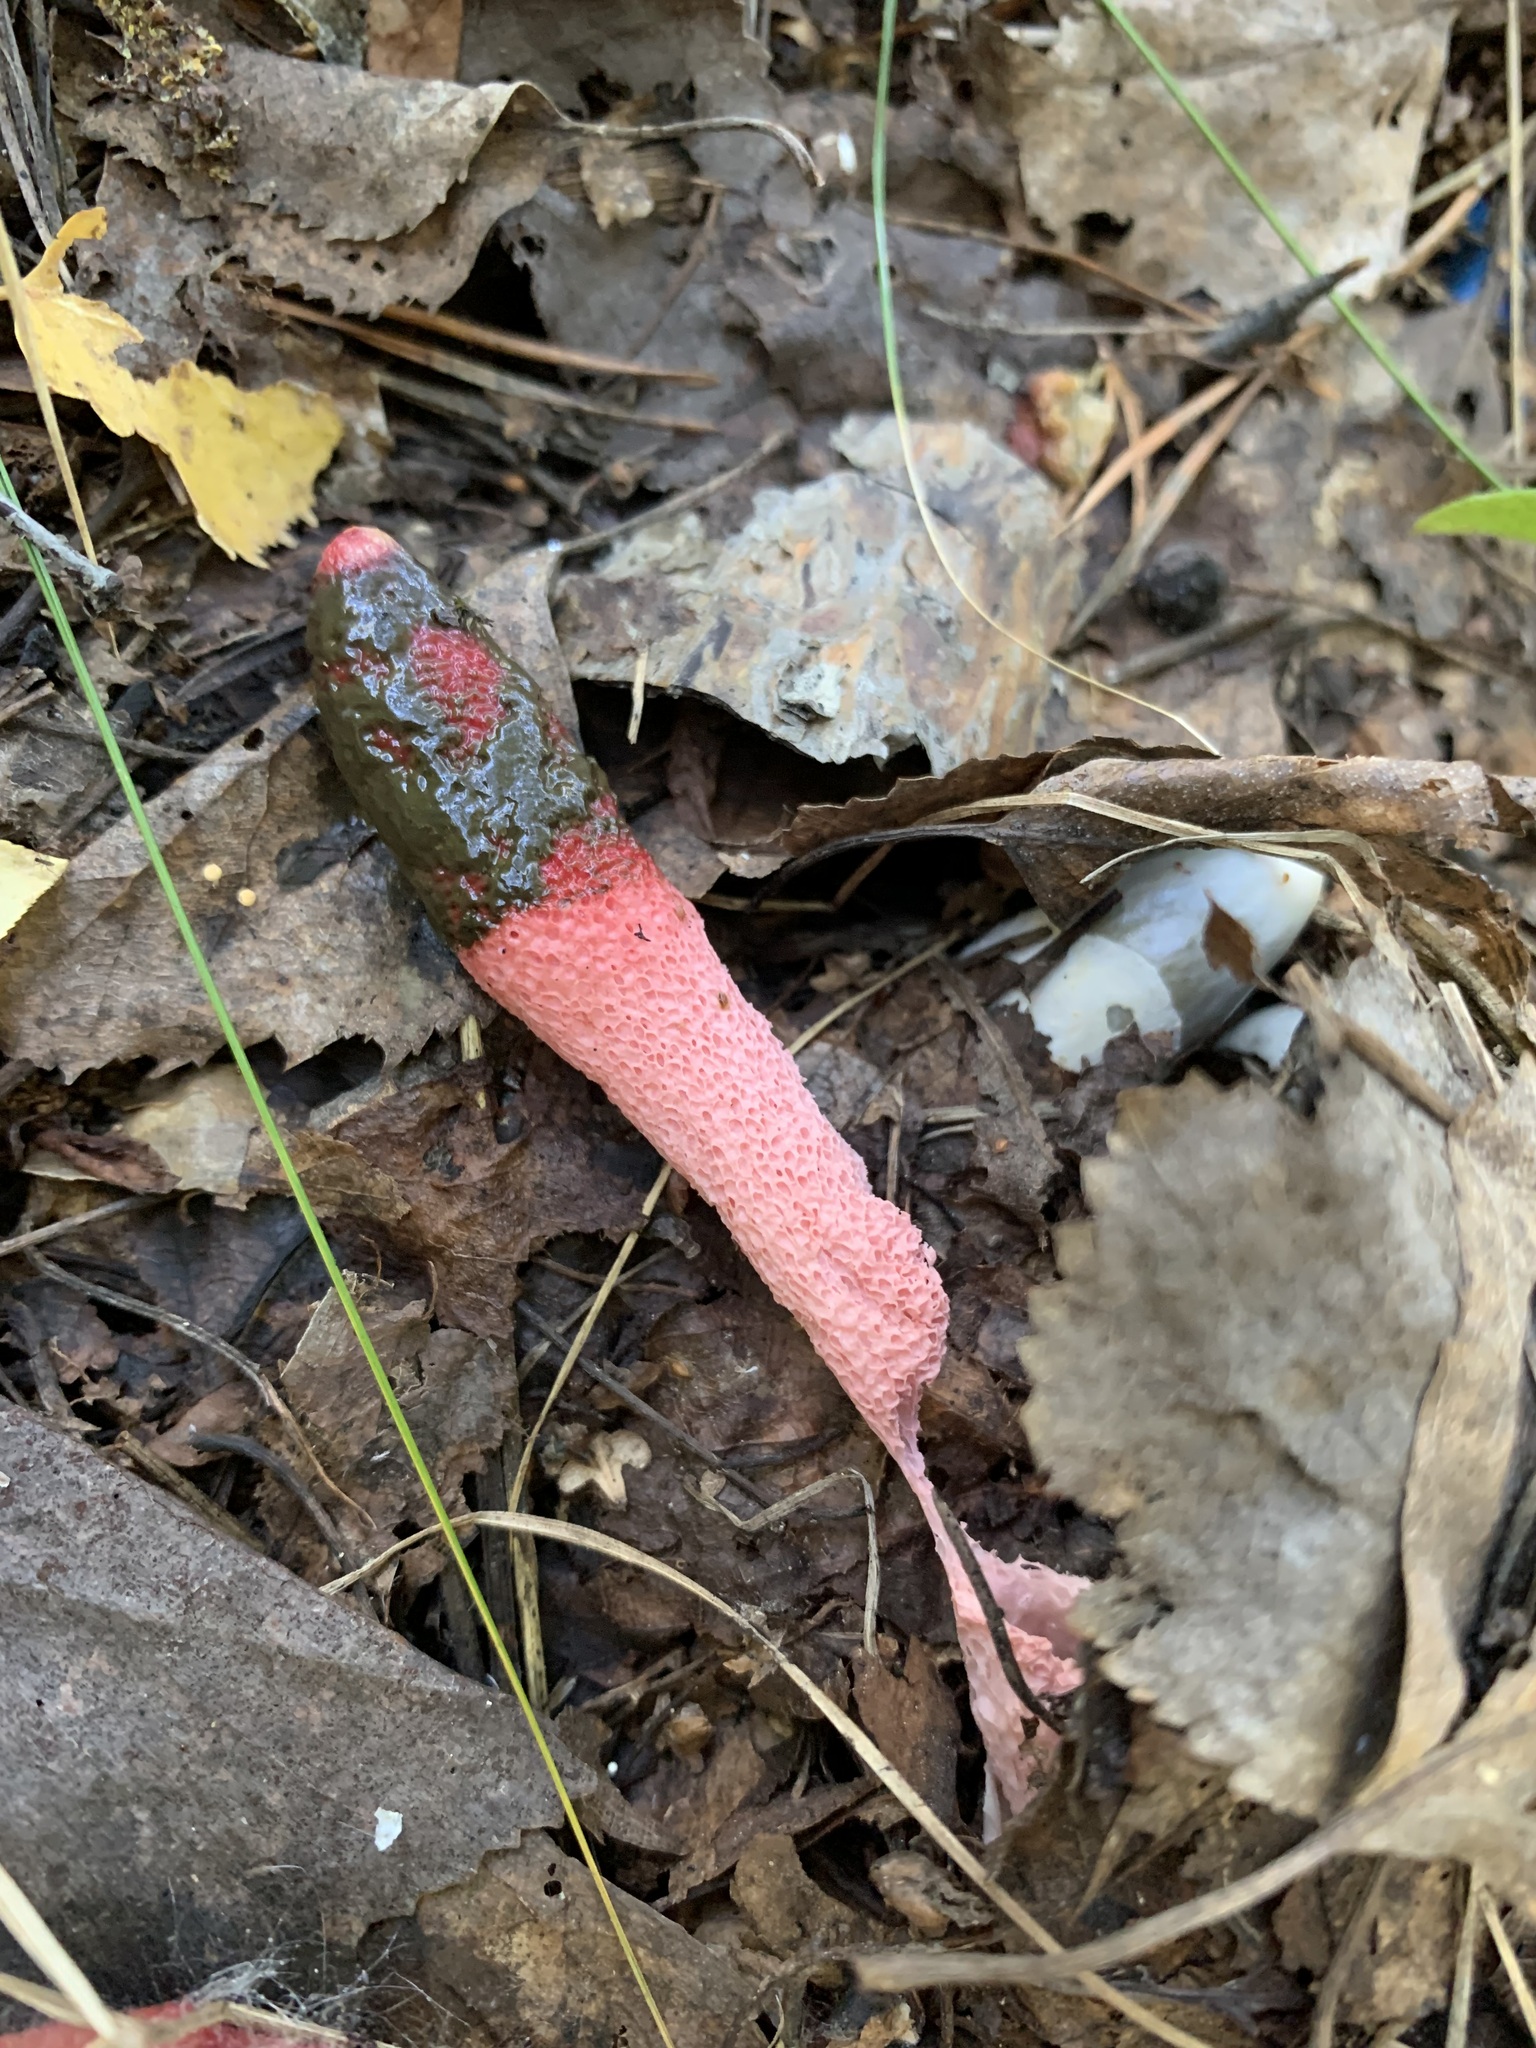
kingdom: Fungi
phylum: Basidiomycota
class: Agaricomycetes
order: Phallales
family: Phallaceae
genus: Mutinus
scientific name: Mutinus ravenelii
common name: Red stinkhorn
